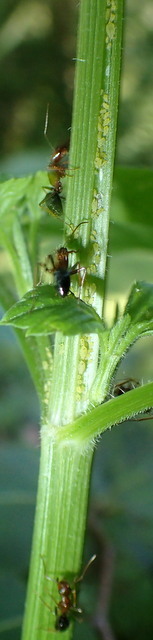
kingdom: Animalia
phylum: Arthropoda
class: Insecta
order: Hymenoptera
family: Formicidae
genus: Camponotus
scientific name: Camponotus floridanus
